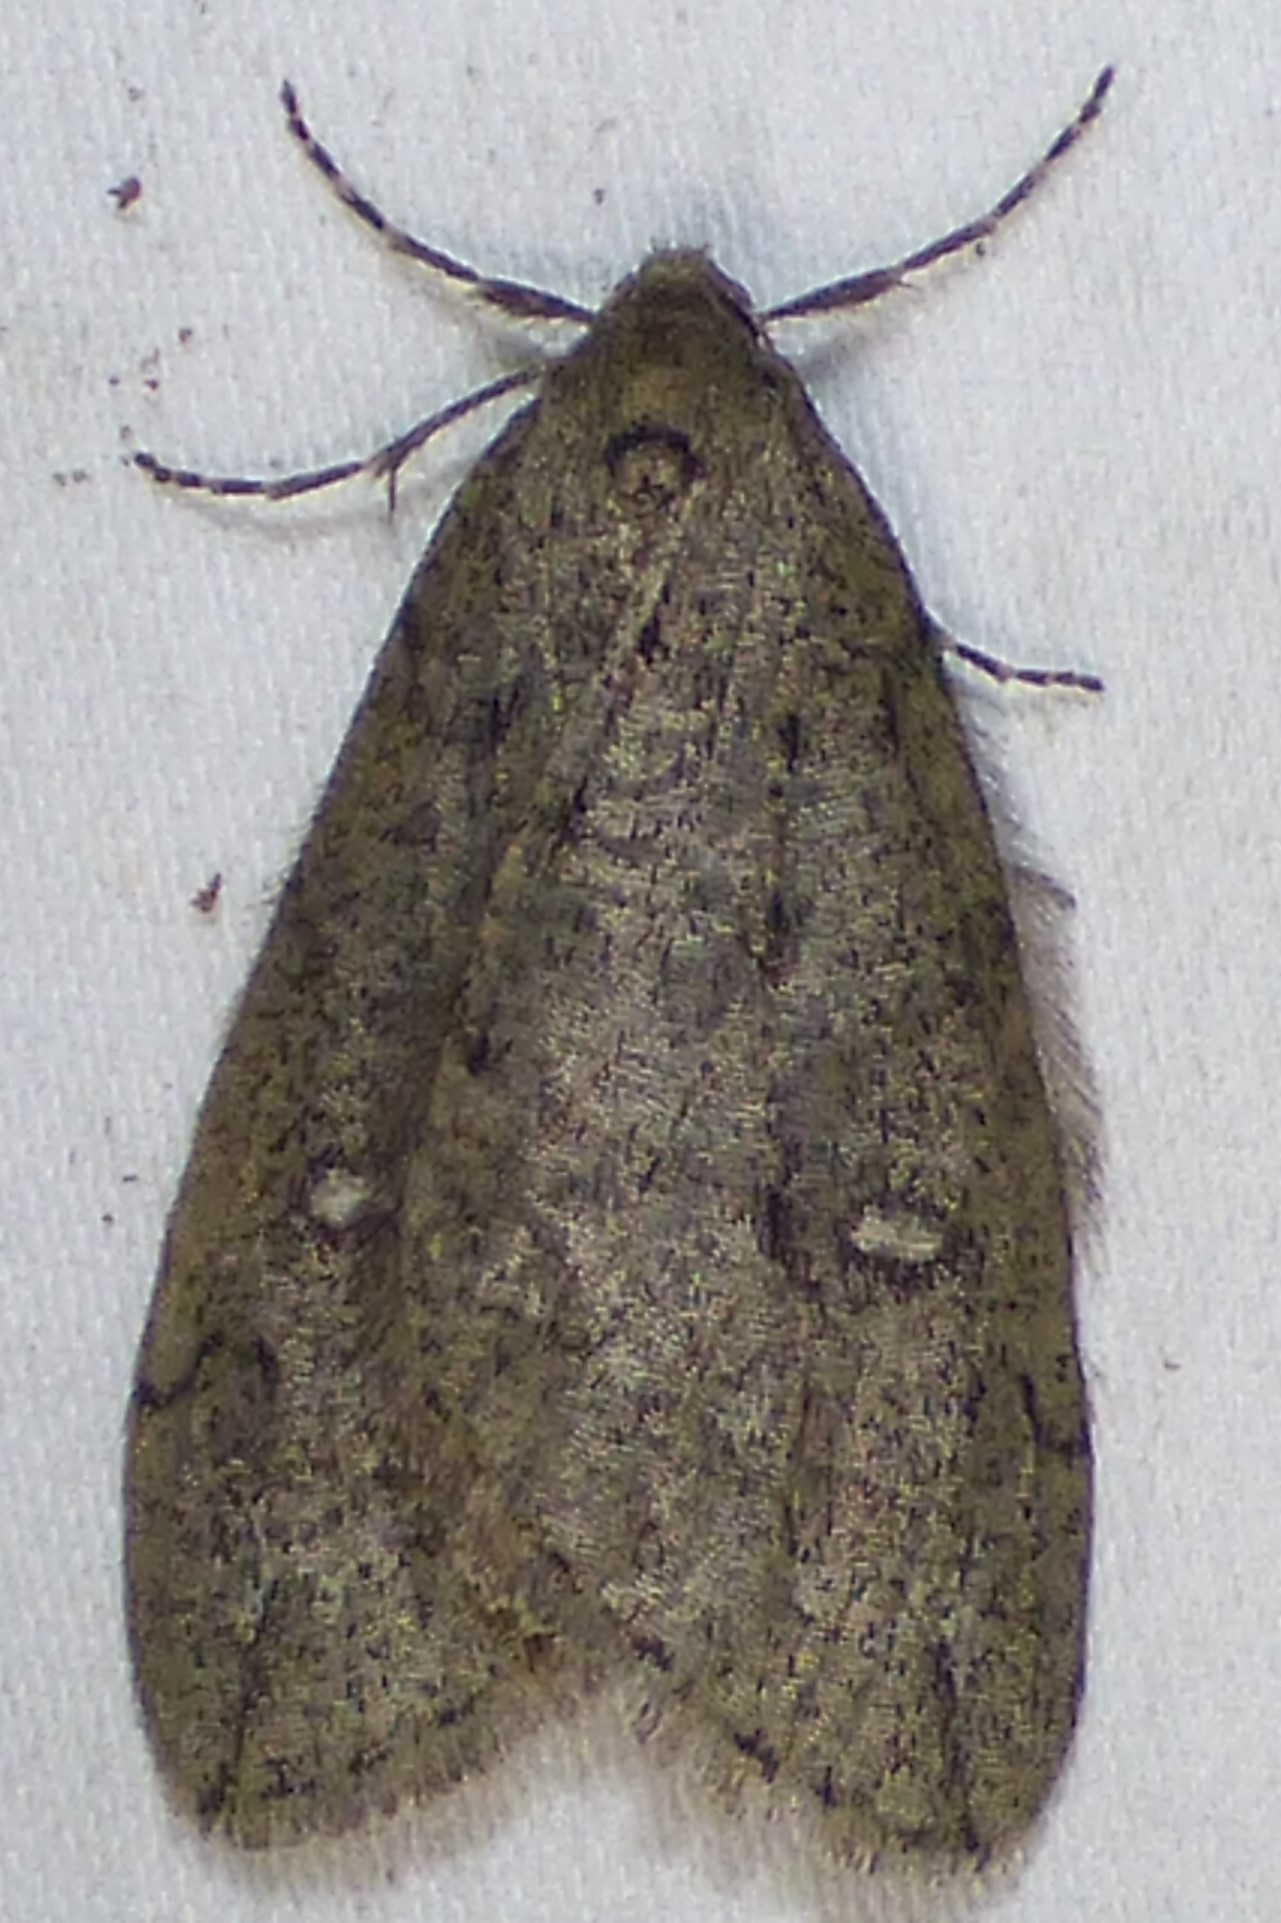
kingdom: Animalia
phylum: Arthropoda
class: Insecta
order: Lepidoptera
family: Geometridae
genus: Paleacrita
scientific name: Paleacrita merriccata
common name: White-spotted canker worm
